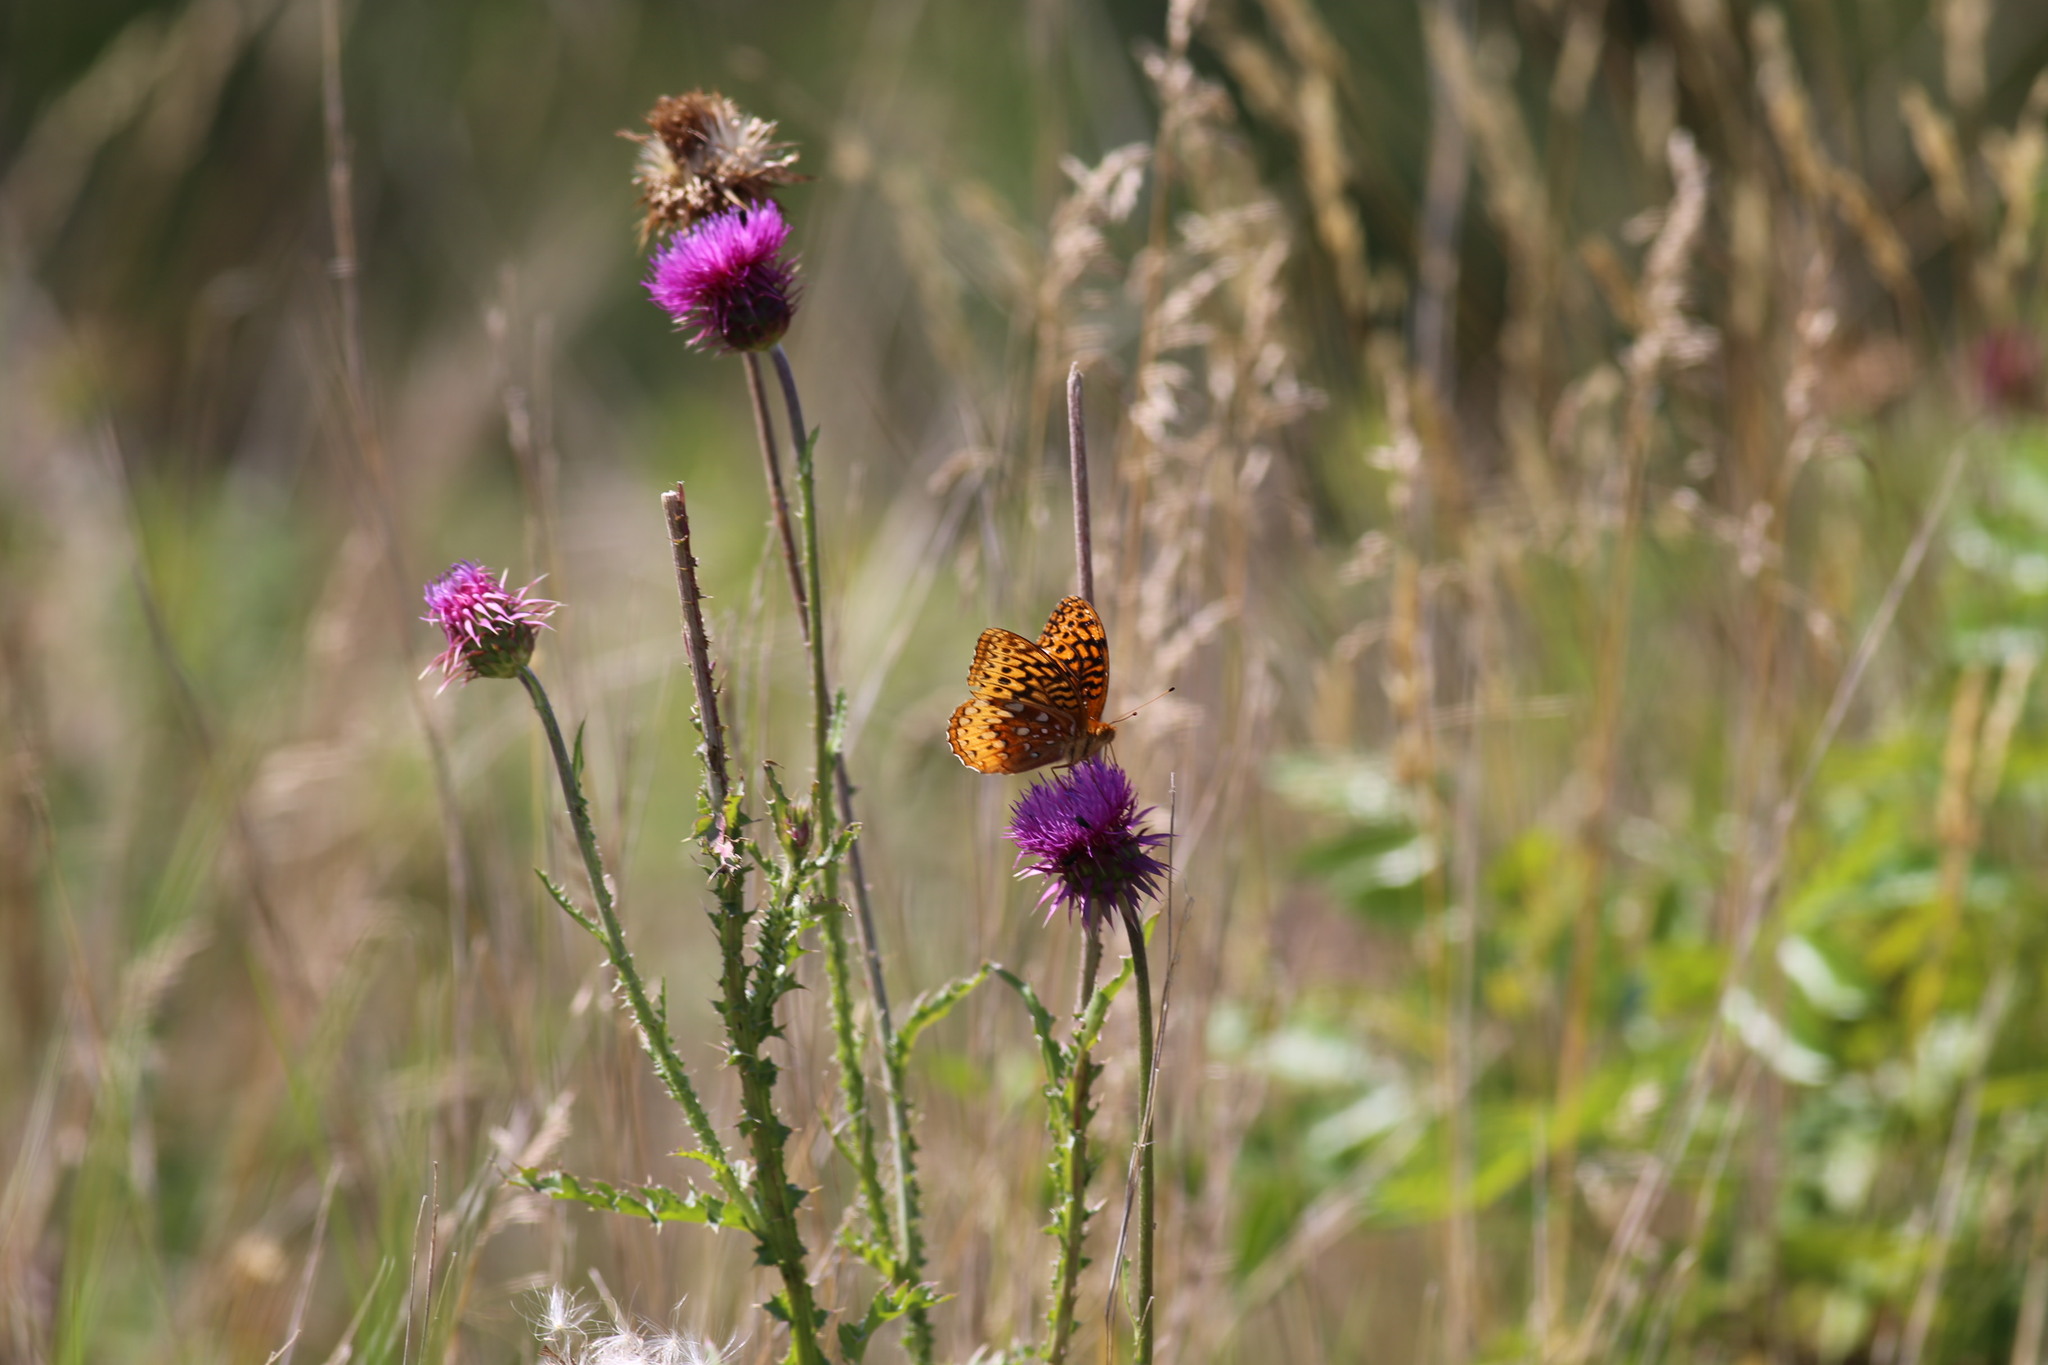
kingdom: Plantae
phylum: Tracheophyta
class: Magnoliopsida
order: Asterales
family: Asteraceae
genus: Carduus
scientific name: Carduus nutans
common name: Musk thistle
